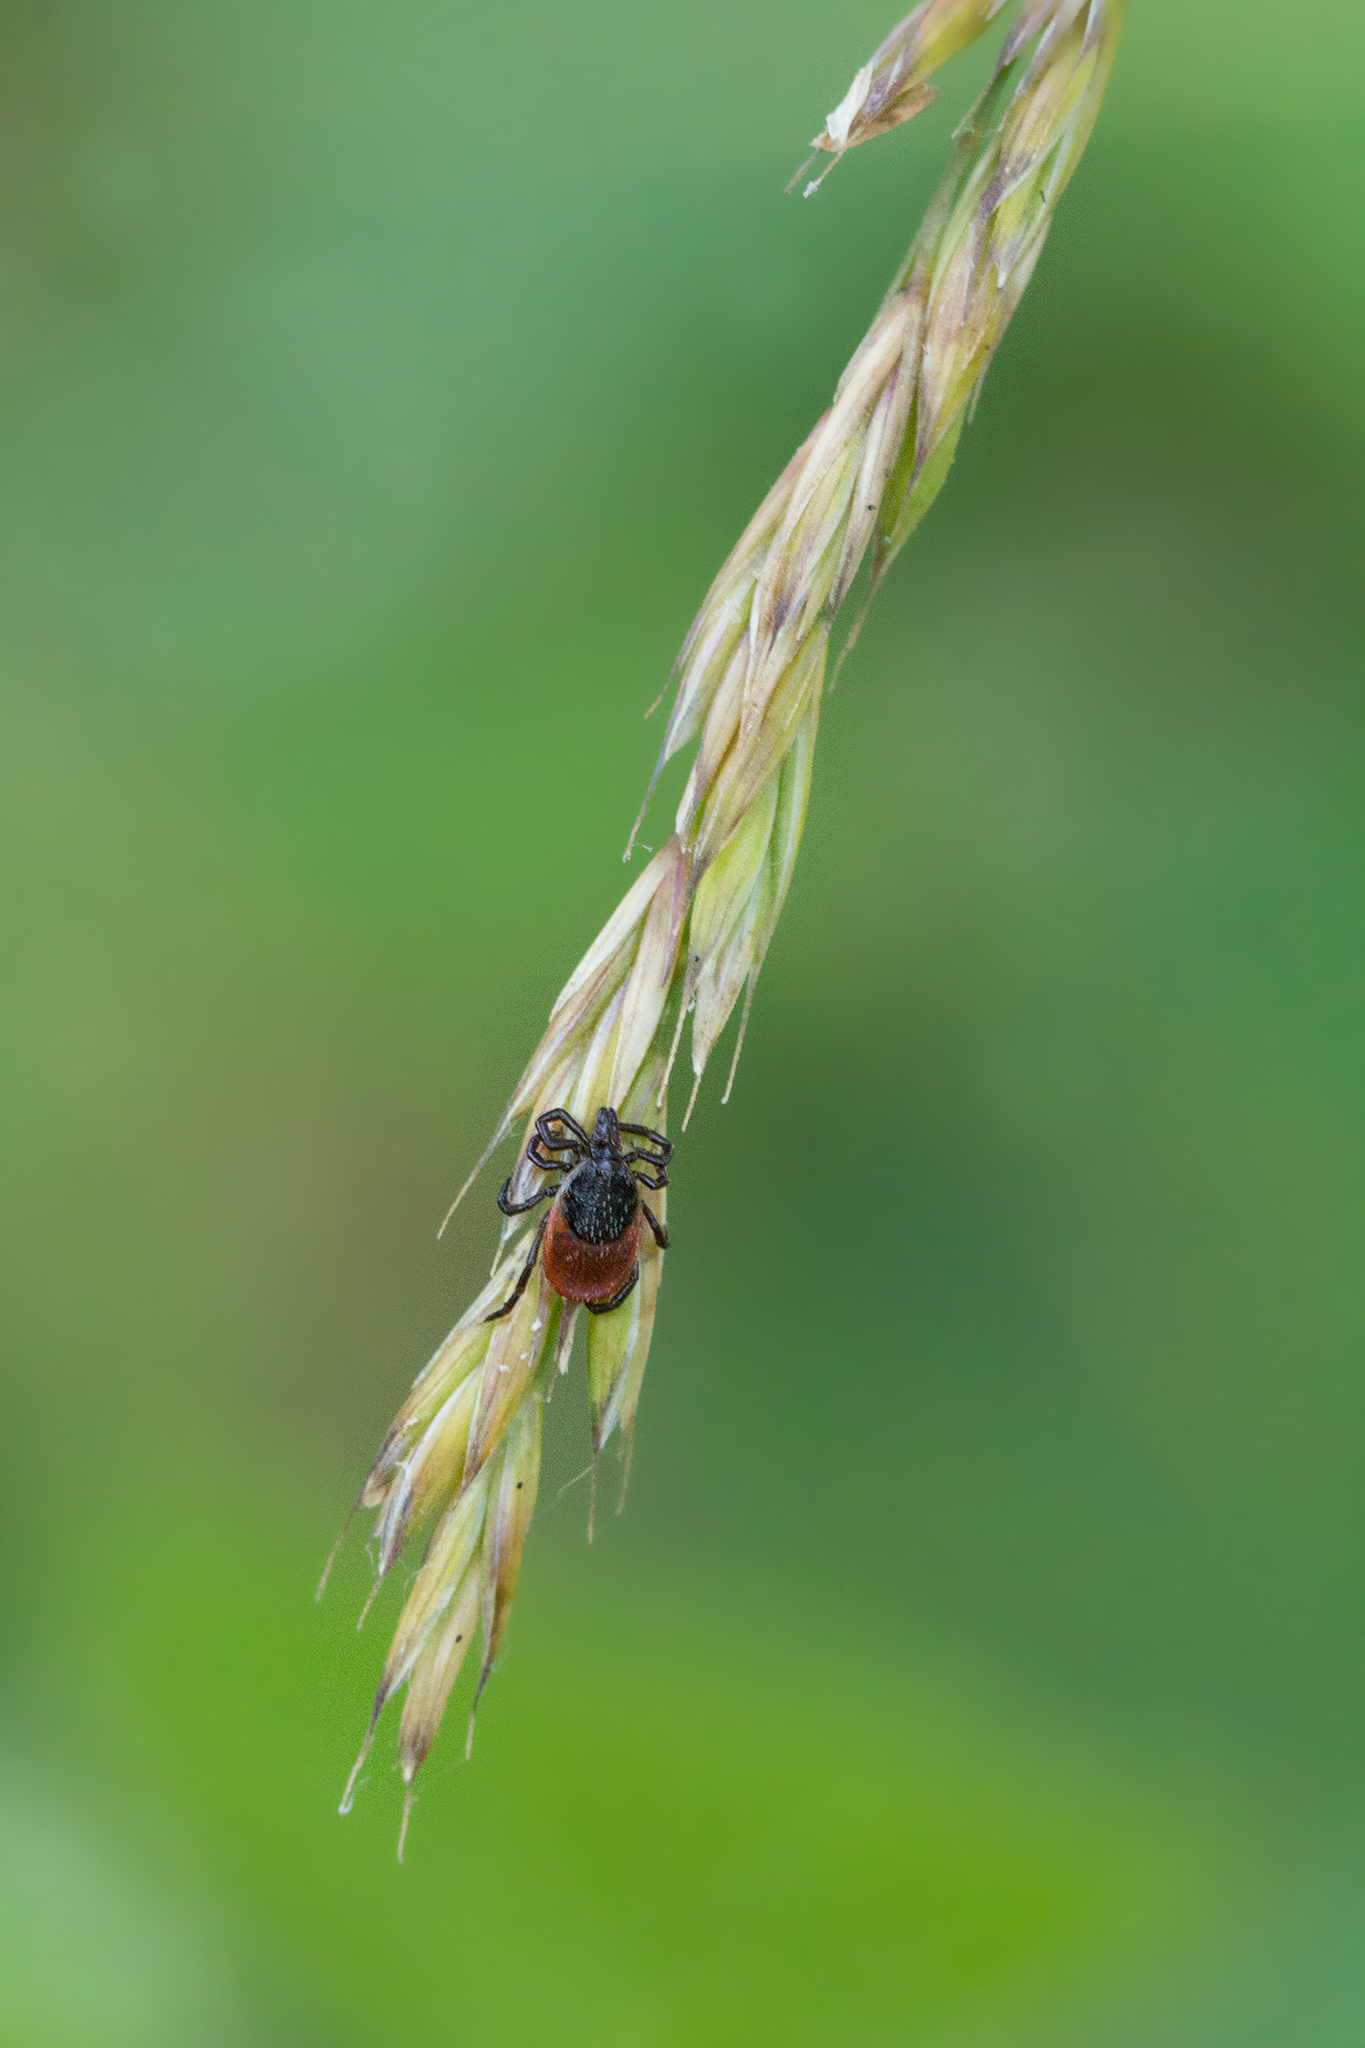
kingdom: Animalia
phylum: Arthropoda
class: Arachnida
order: Ixodida
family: Ixodidae
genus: Ixodes
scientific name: Ixodes ricinus
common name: Castor bean tick
